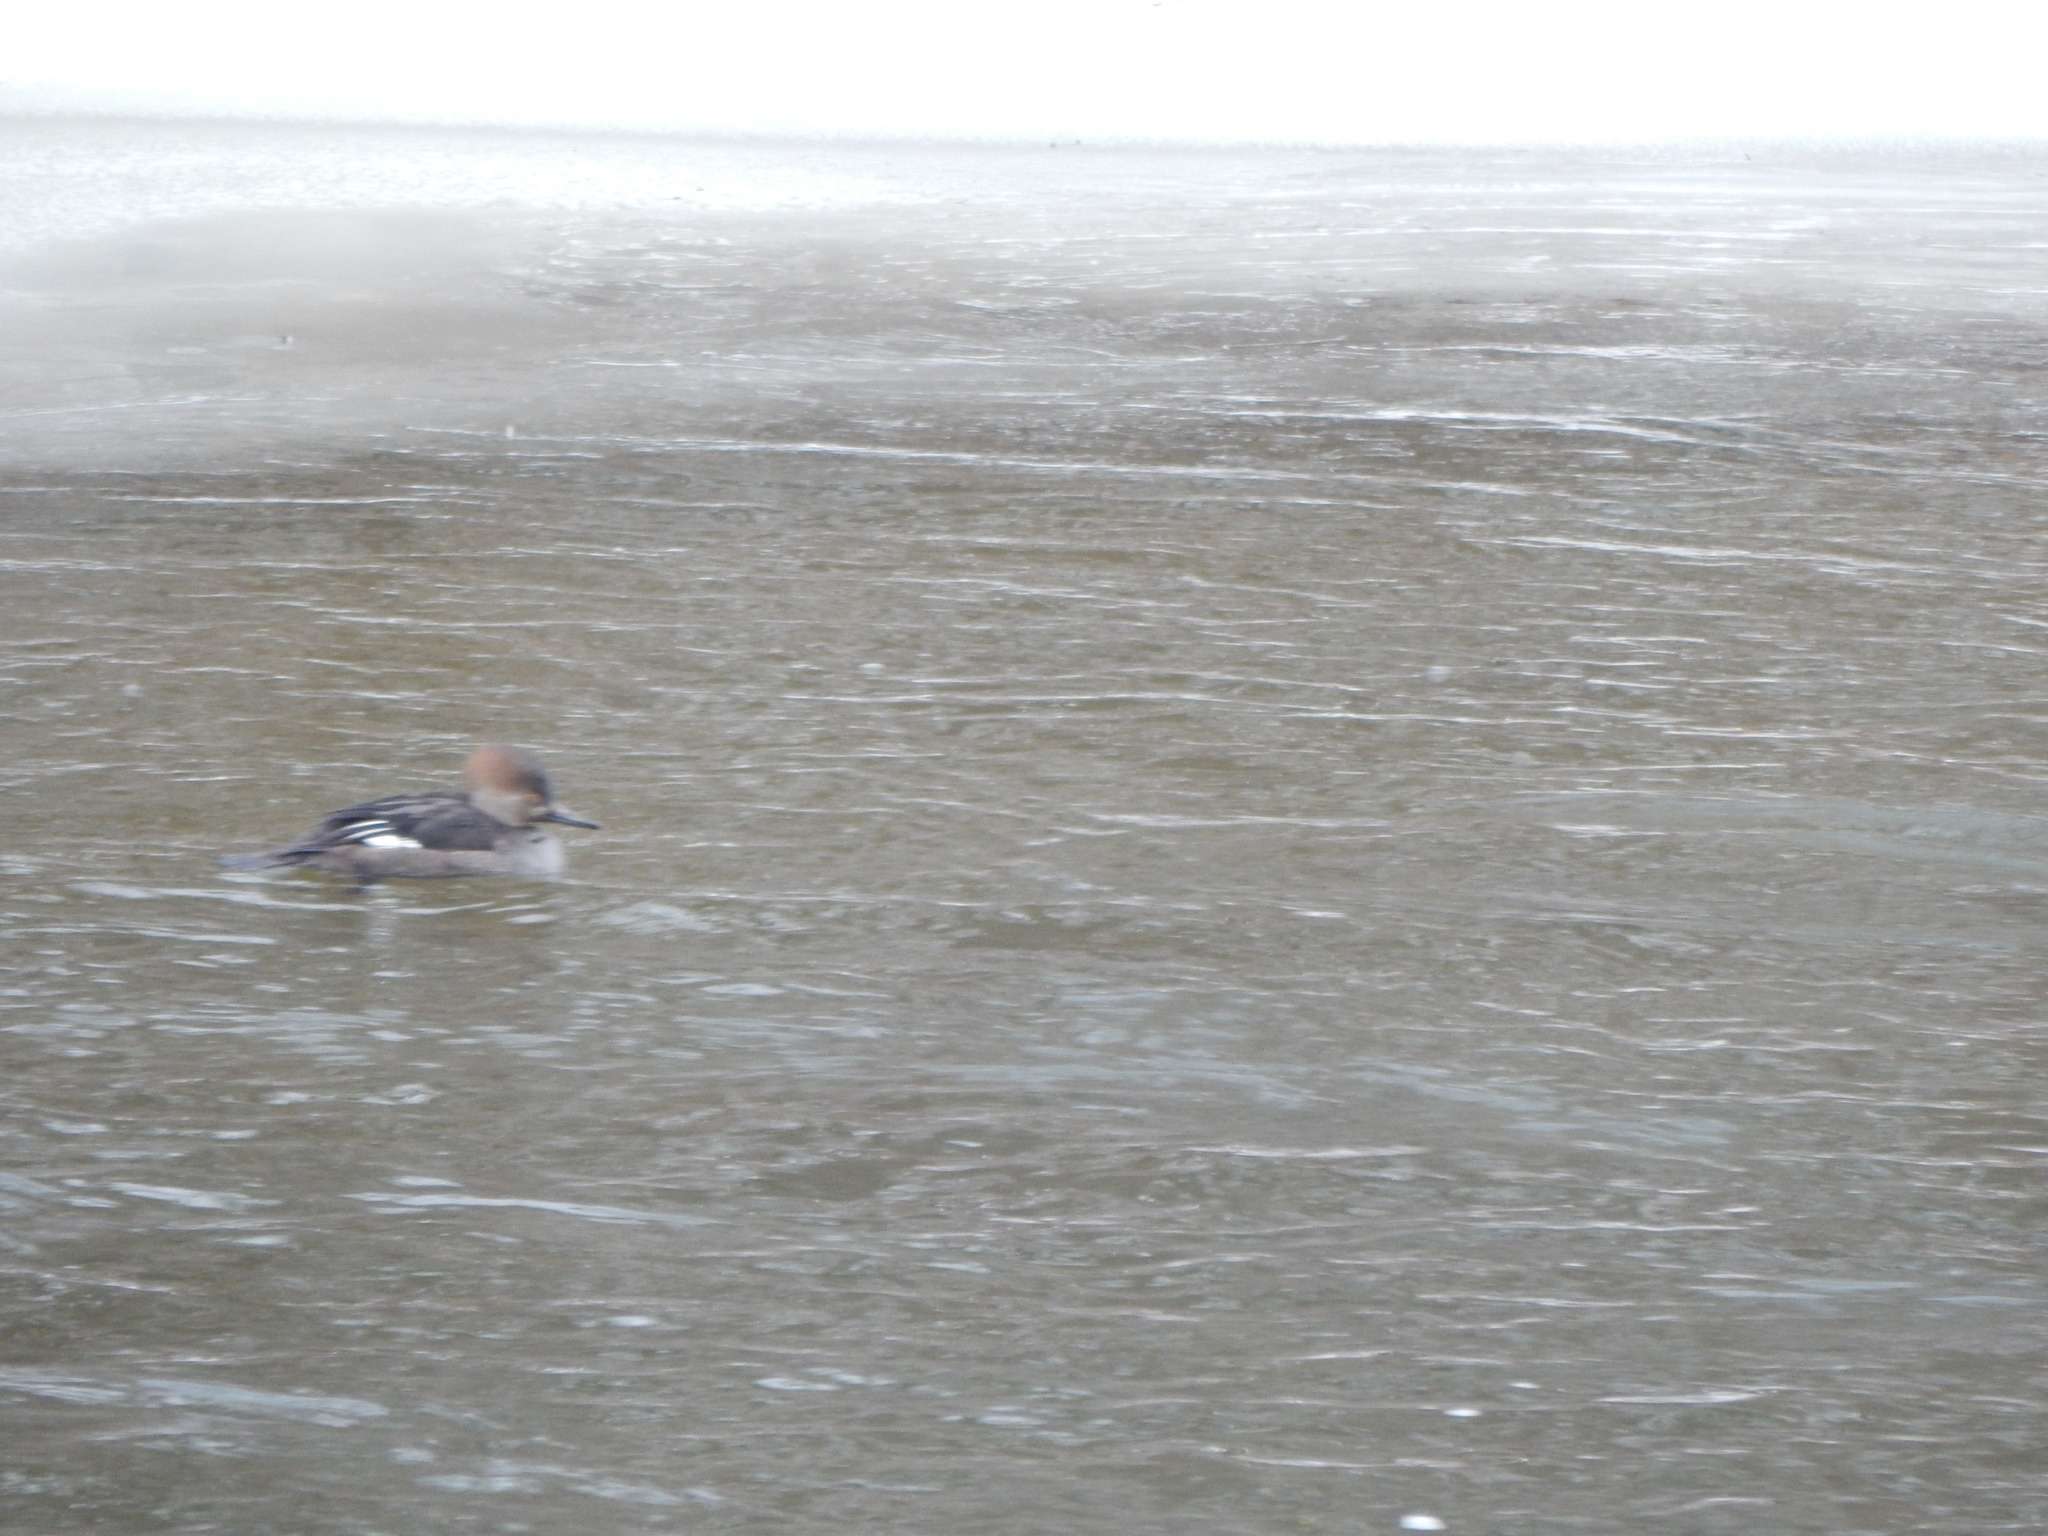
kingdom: Animalia
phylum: Chordata
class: Aves
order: Anseriformes
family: Anatidae
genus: Lophodytes
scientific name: Lophodytes cucullatus
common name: Hooded merganser
